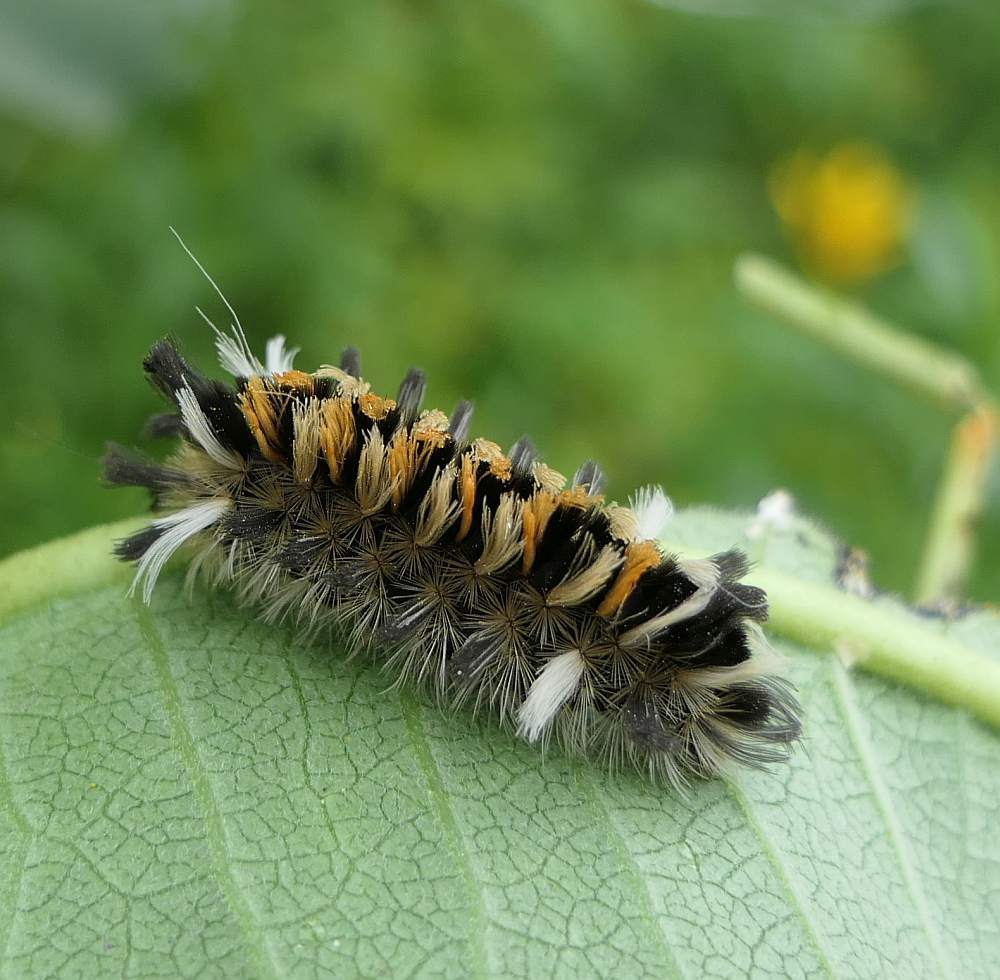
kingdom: Animalia
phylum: Arthropoda
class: Insecta
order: Lepidoptera
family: Erebidae
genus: Euchaetes
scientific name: Euchaetes egle
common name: Milkweed tussock moth
